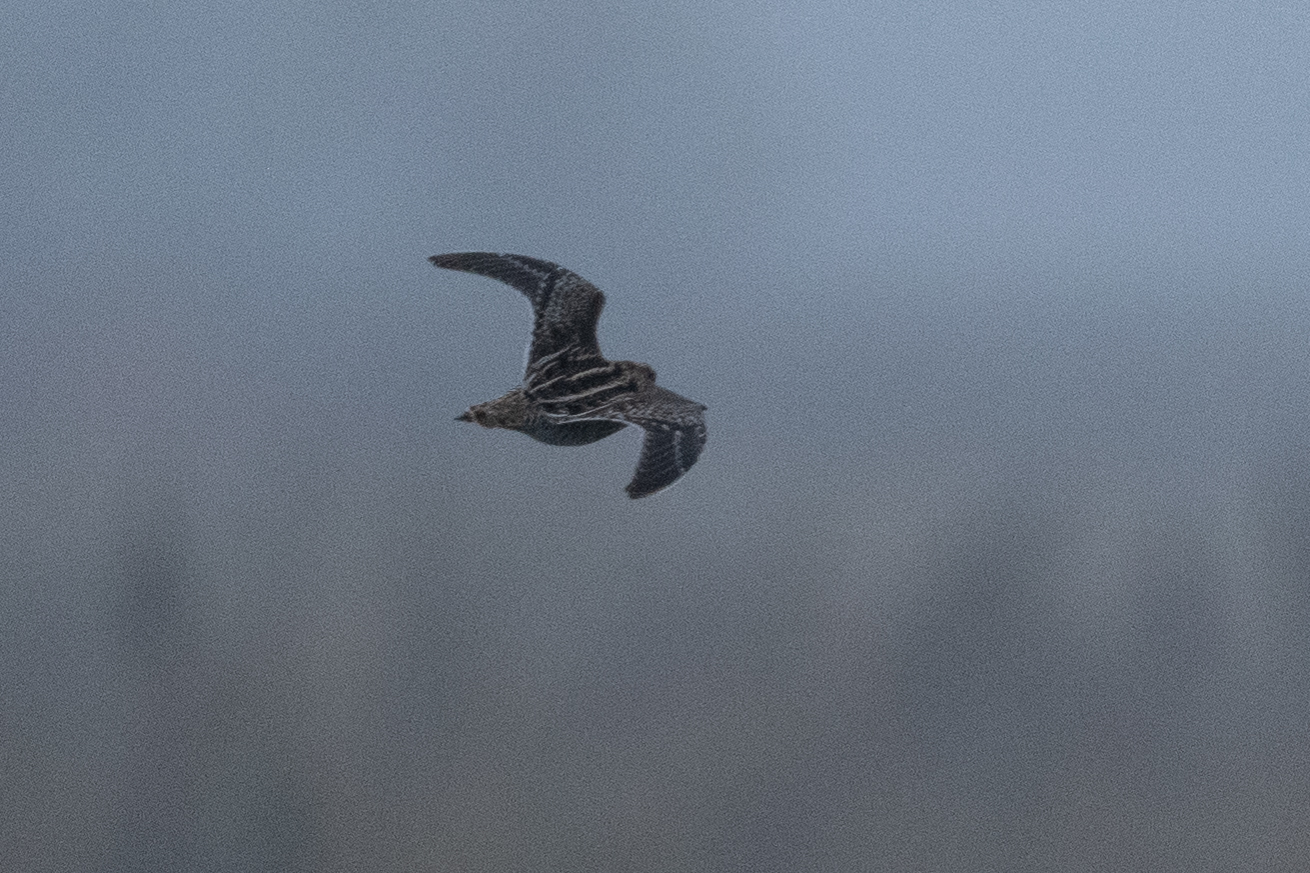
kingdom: Animalia
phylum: Chordata
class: Aves
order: Charadriiformes
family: Scolopacidae
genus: Gallinago
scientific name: Gallinago delicata
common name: Wilson's snipe
